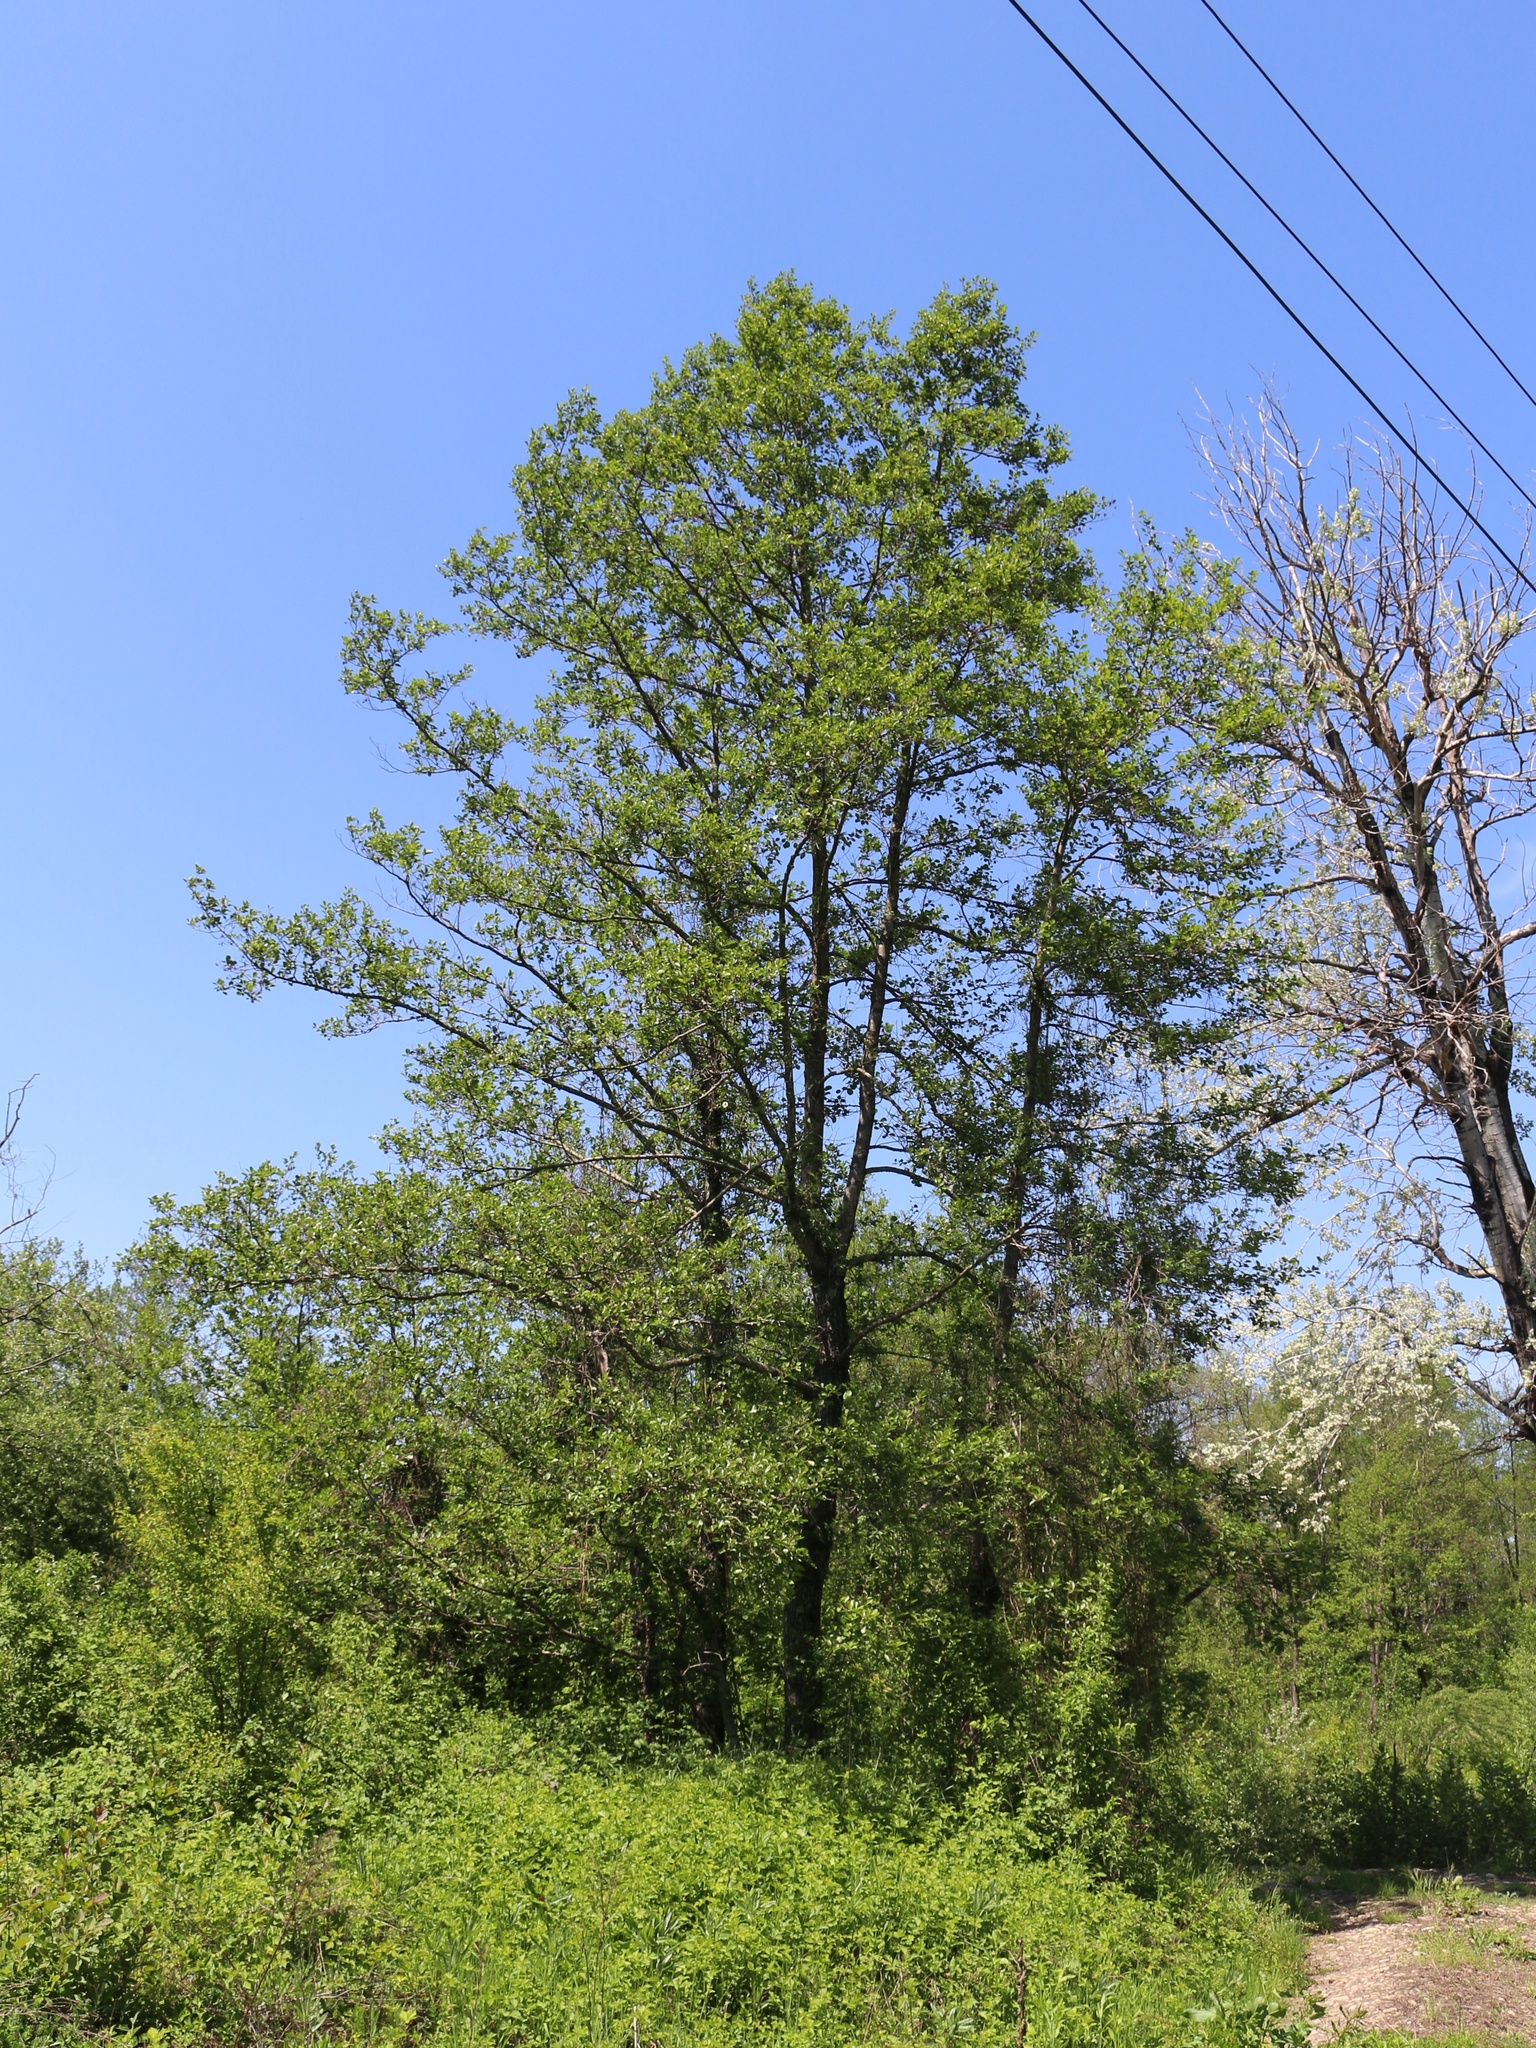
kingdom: Plantae
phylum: Tracheophyta
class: Magnoliopsida
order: Fagales
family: Betulaceae
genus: Alnus
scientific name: Alnus glutinosa
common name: Black alder
